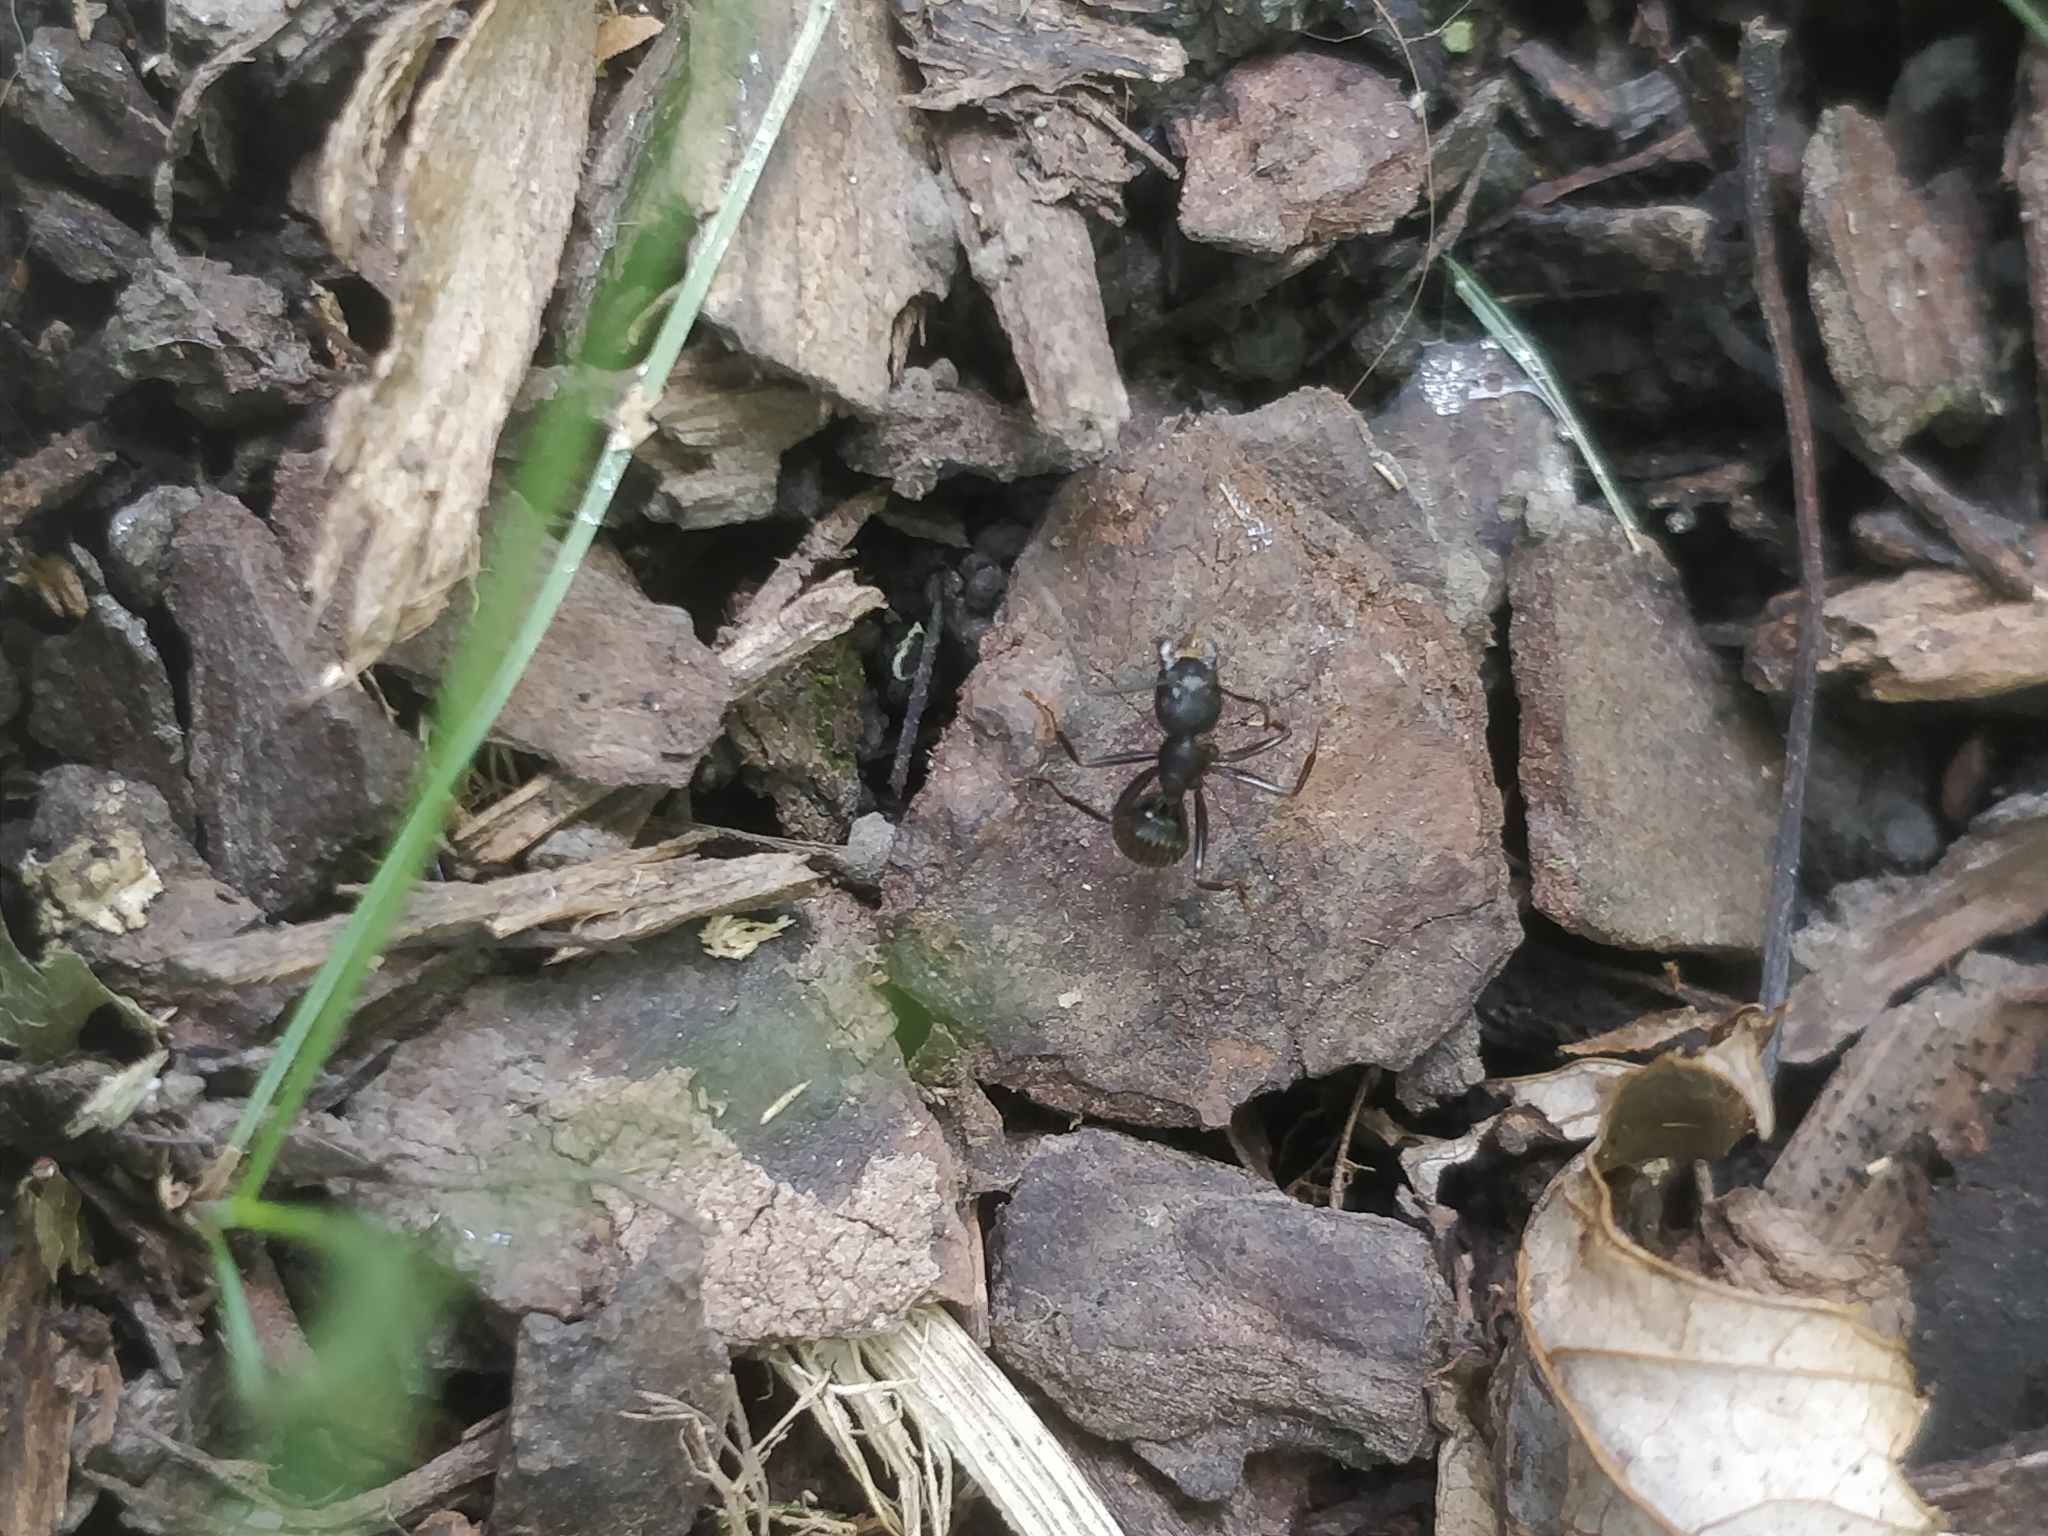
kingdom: Animalia
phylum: Arthropoda
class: Insecta
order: Hymenoptera
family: Formicidae
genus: Camponotus
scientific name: Camponotus pennsylvanicus
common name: Black carpenter ant
